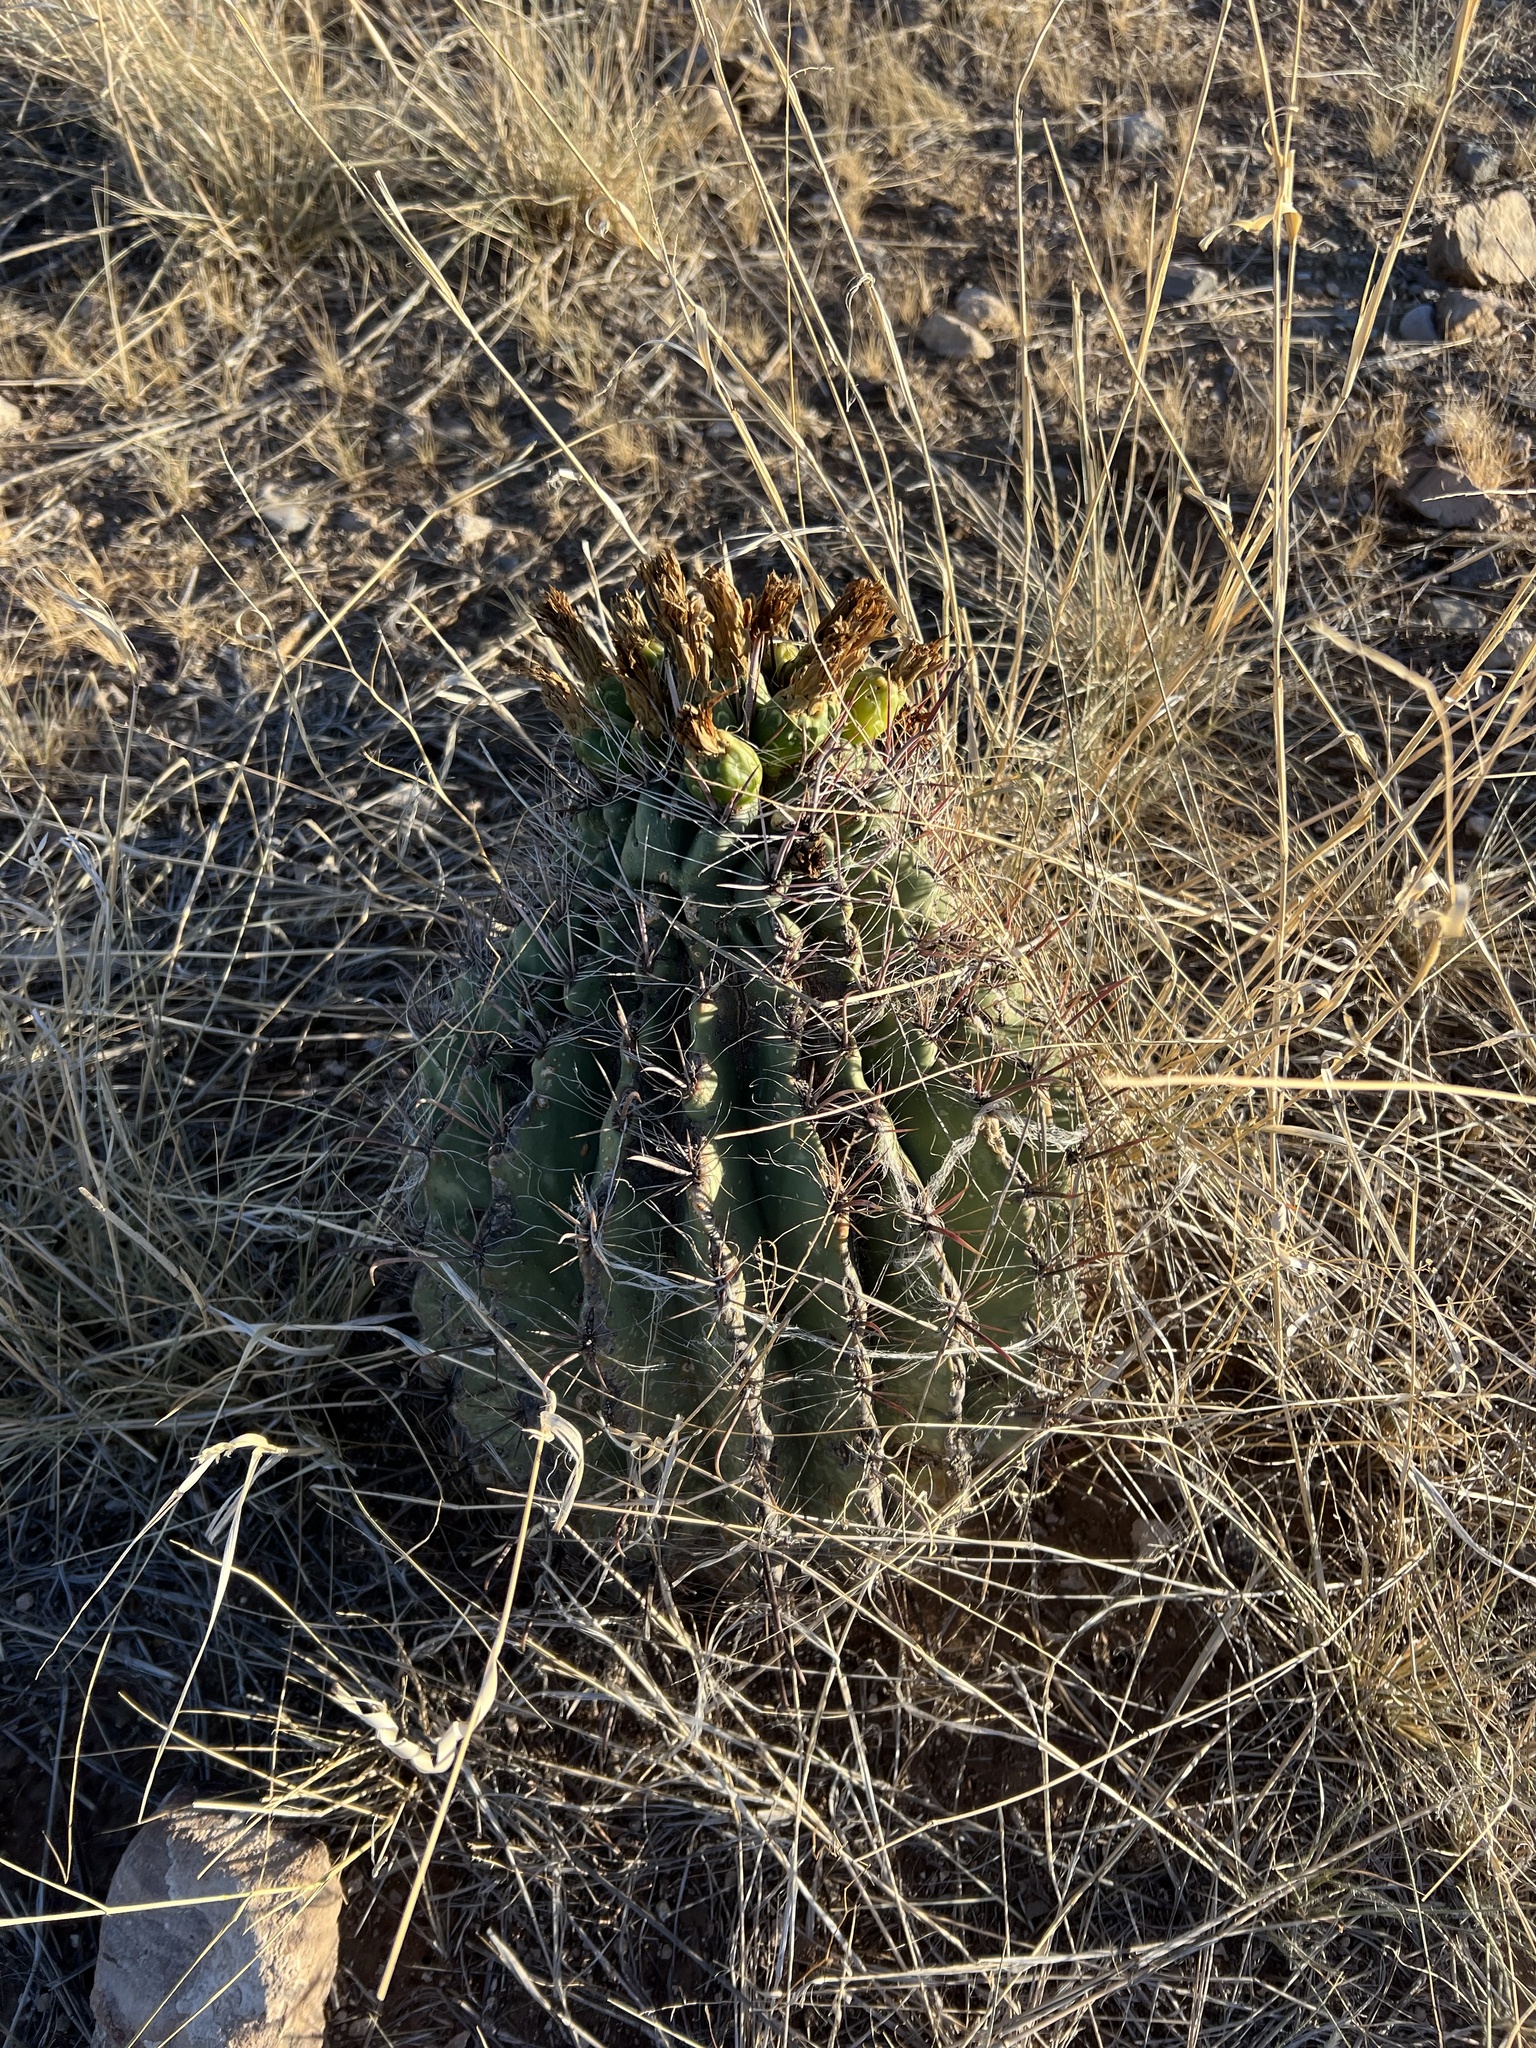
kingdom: Plantae
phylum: Tracheophyta
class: Magnoliopsida
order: Caryophyllales
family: Cactaceae
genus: Ferocactus
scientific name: Ferocactus wislizeni
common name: Candy barrel cactus
